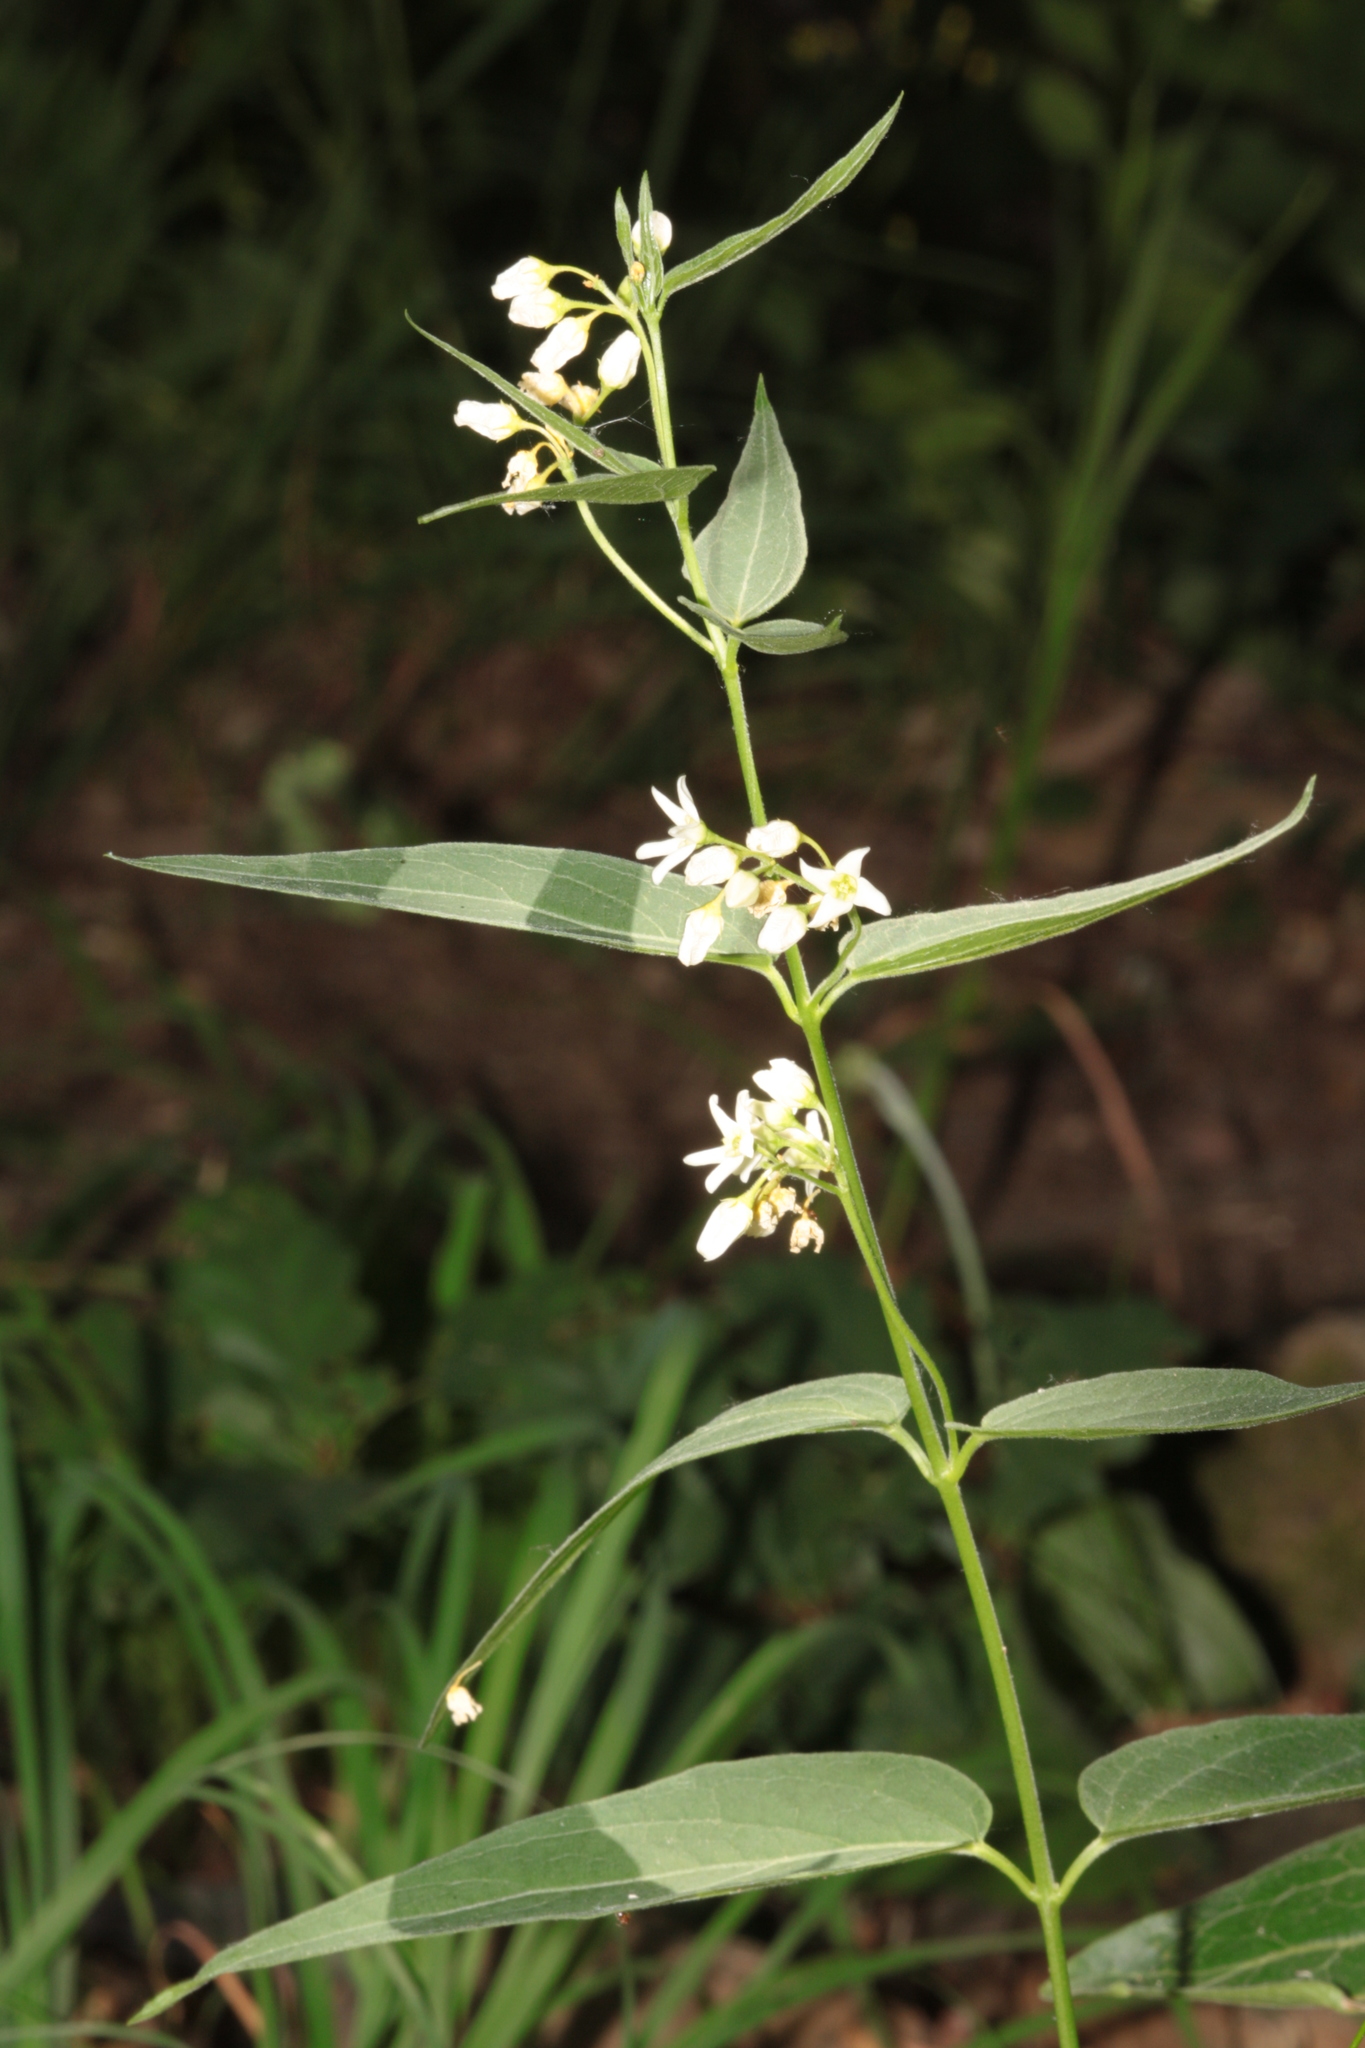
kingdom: Plantae
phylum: Tracheophyta
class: Magnoliopsida
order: Gentianales
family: Apocynaceae
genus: Vincetoxicum
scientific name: Vincetoxicum hirundinaria
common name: White swallowwort
